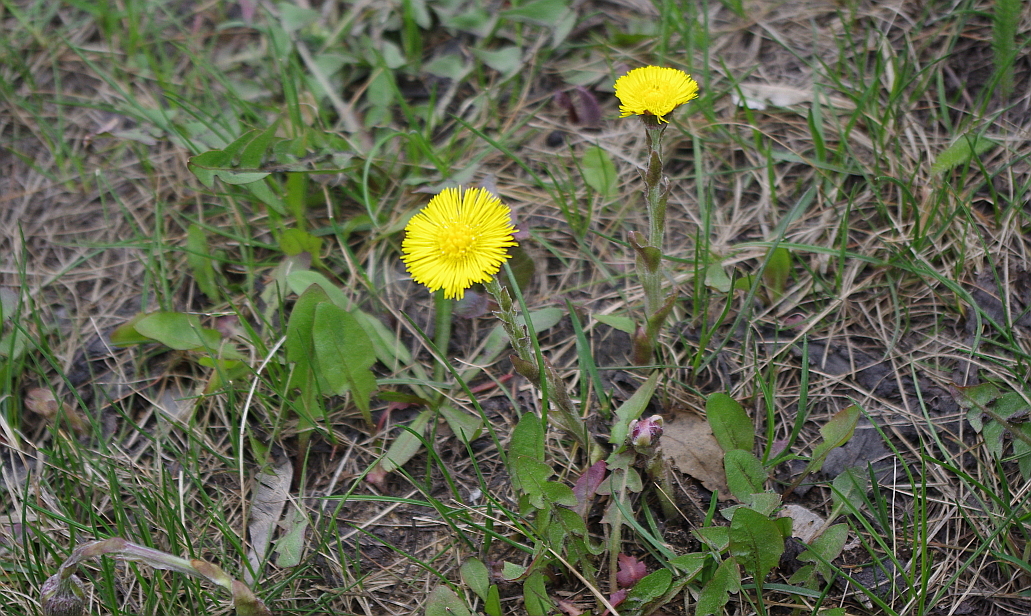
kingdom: Plantae
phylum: Tracheophyta
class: Magnoliopsida
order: Asterales
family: Asteraceae
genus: Tussilago
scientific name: Tussilago farfara
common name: Coltsfoot
